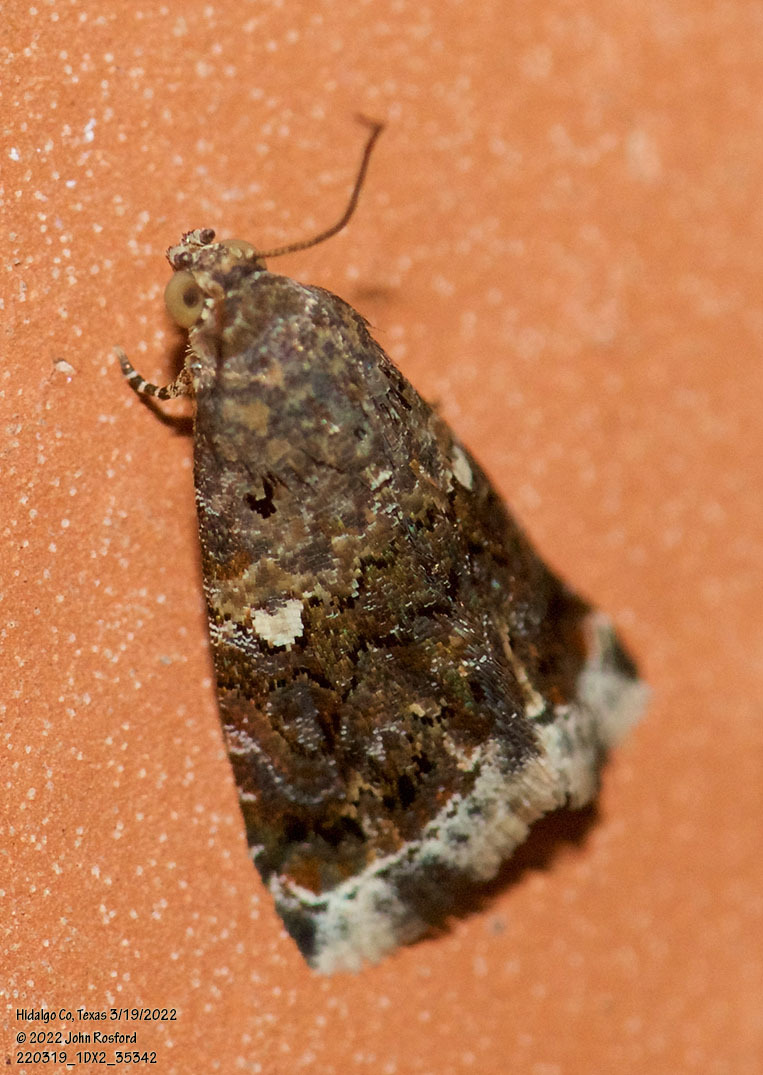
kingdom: Animalia
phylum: Arthropoda
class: Insecta
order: Lepidoptera
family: Noctuidae
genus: Tripudia
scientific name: Tripudia luxuriosa
